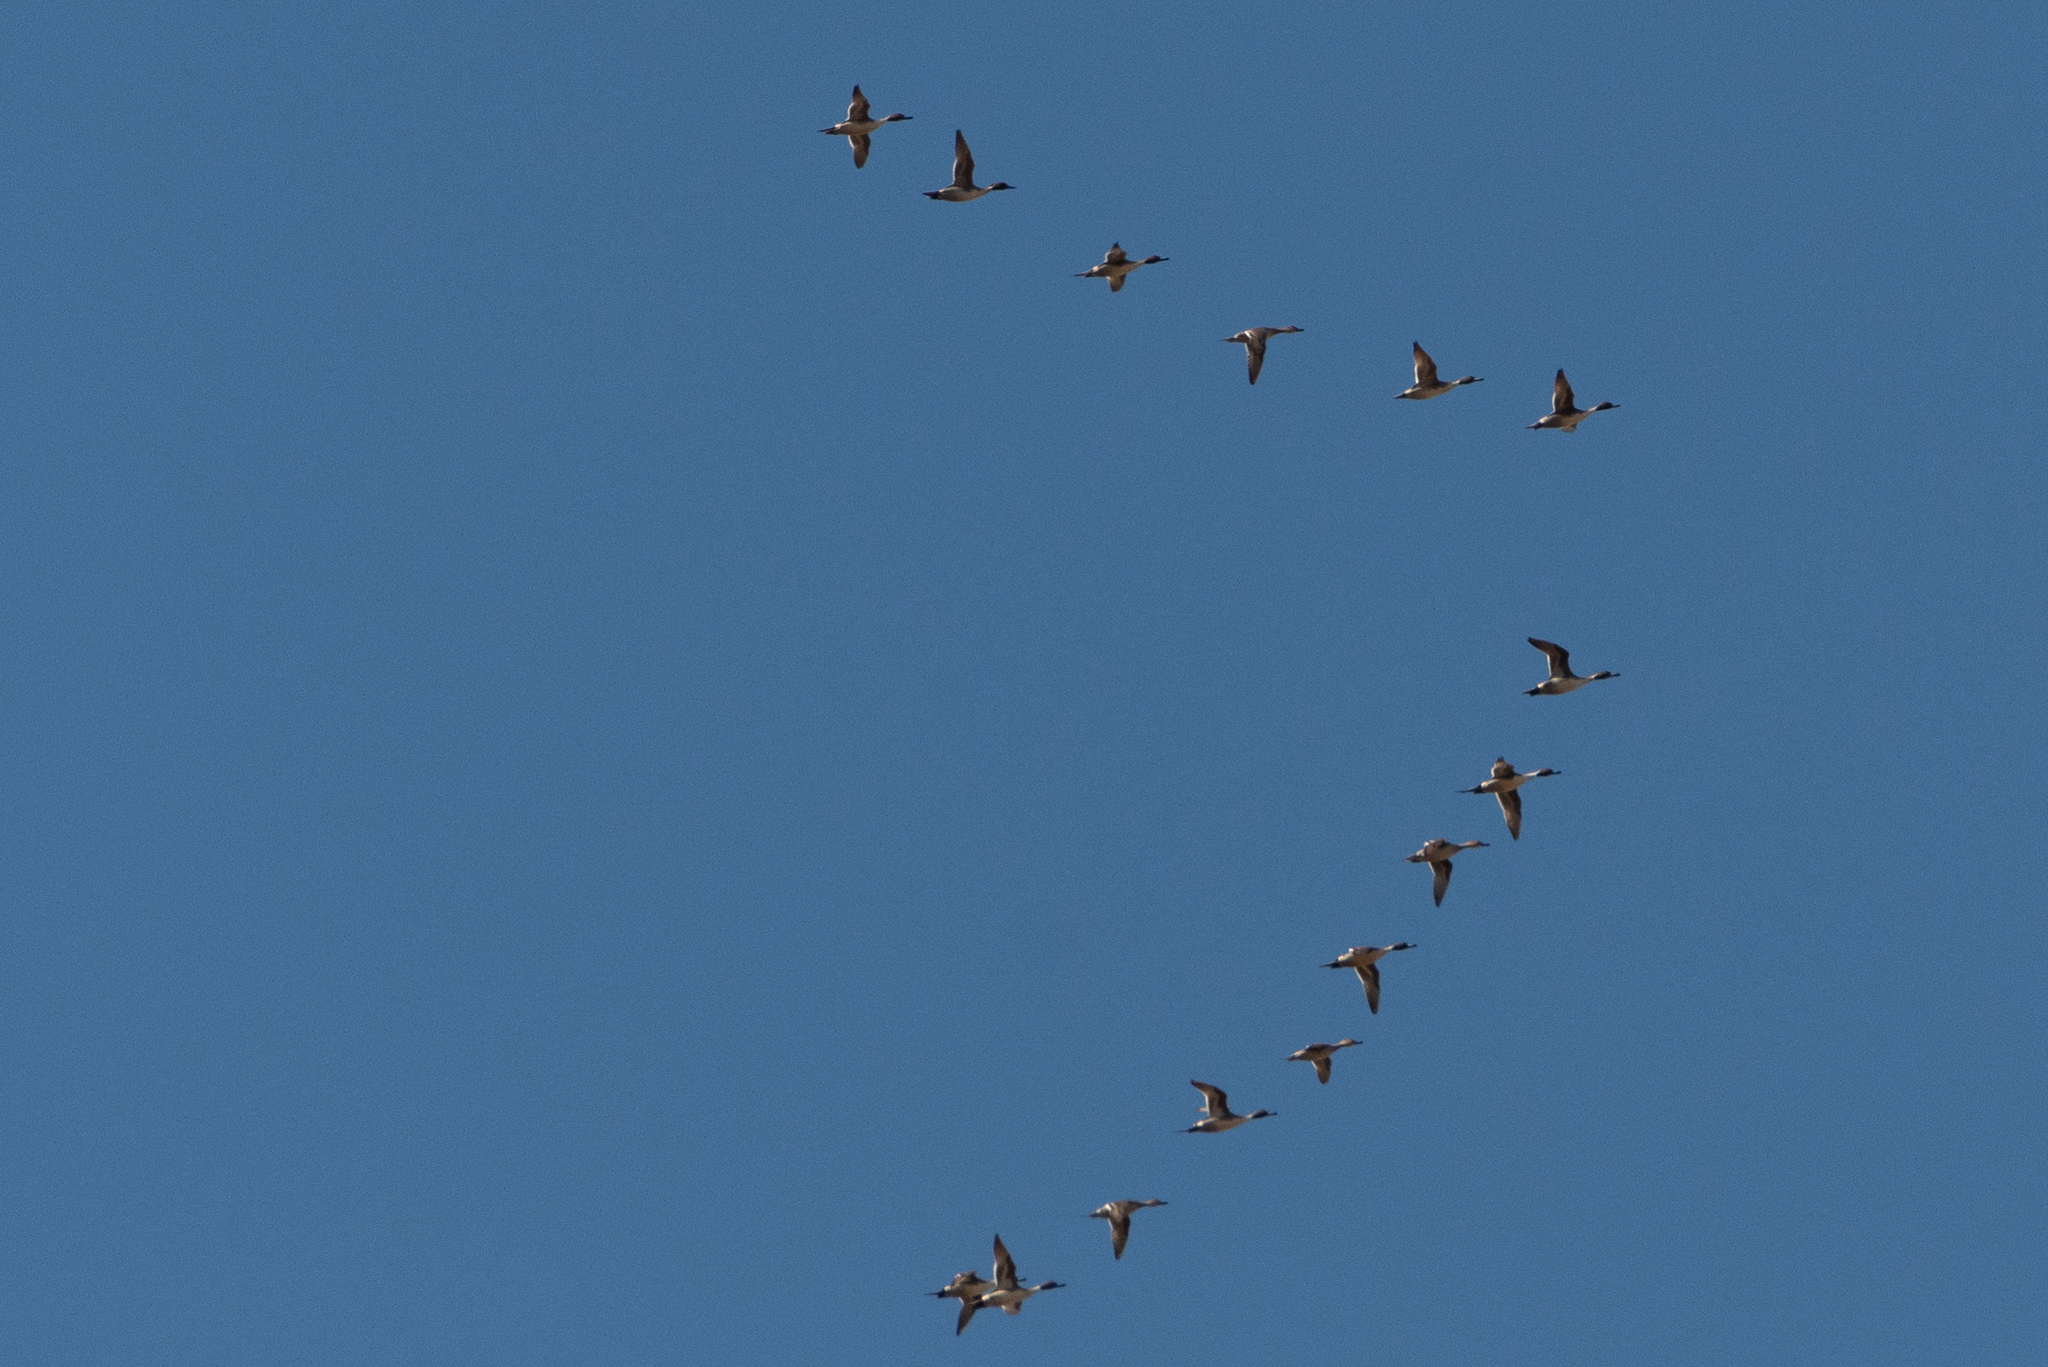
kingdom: Animalia
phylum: Chordata
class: Aves
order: Anseriformes
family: Anatidae
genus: Anas
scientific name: Anas acuta
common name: Northern pintail
